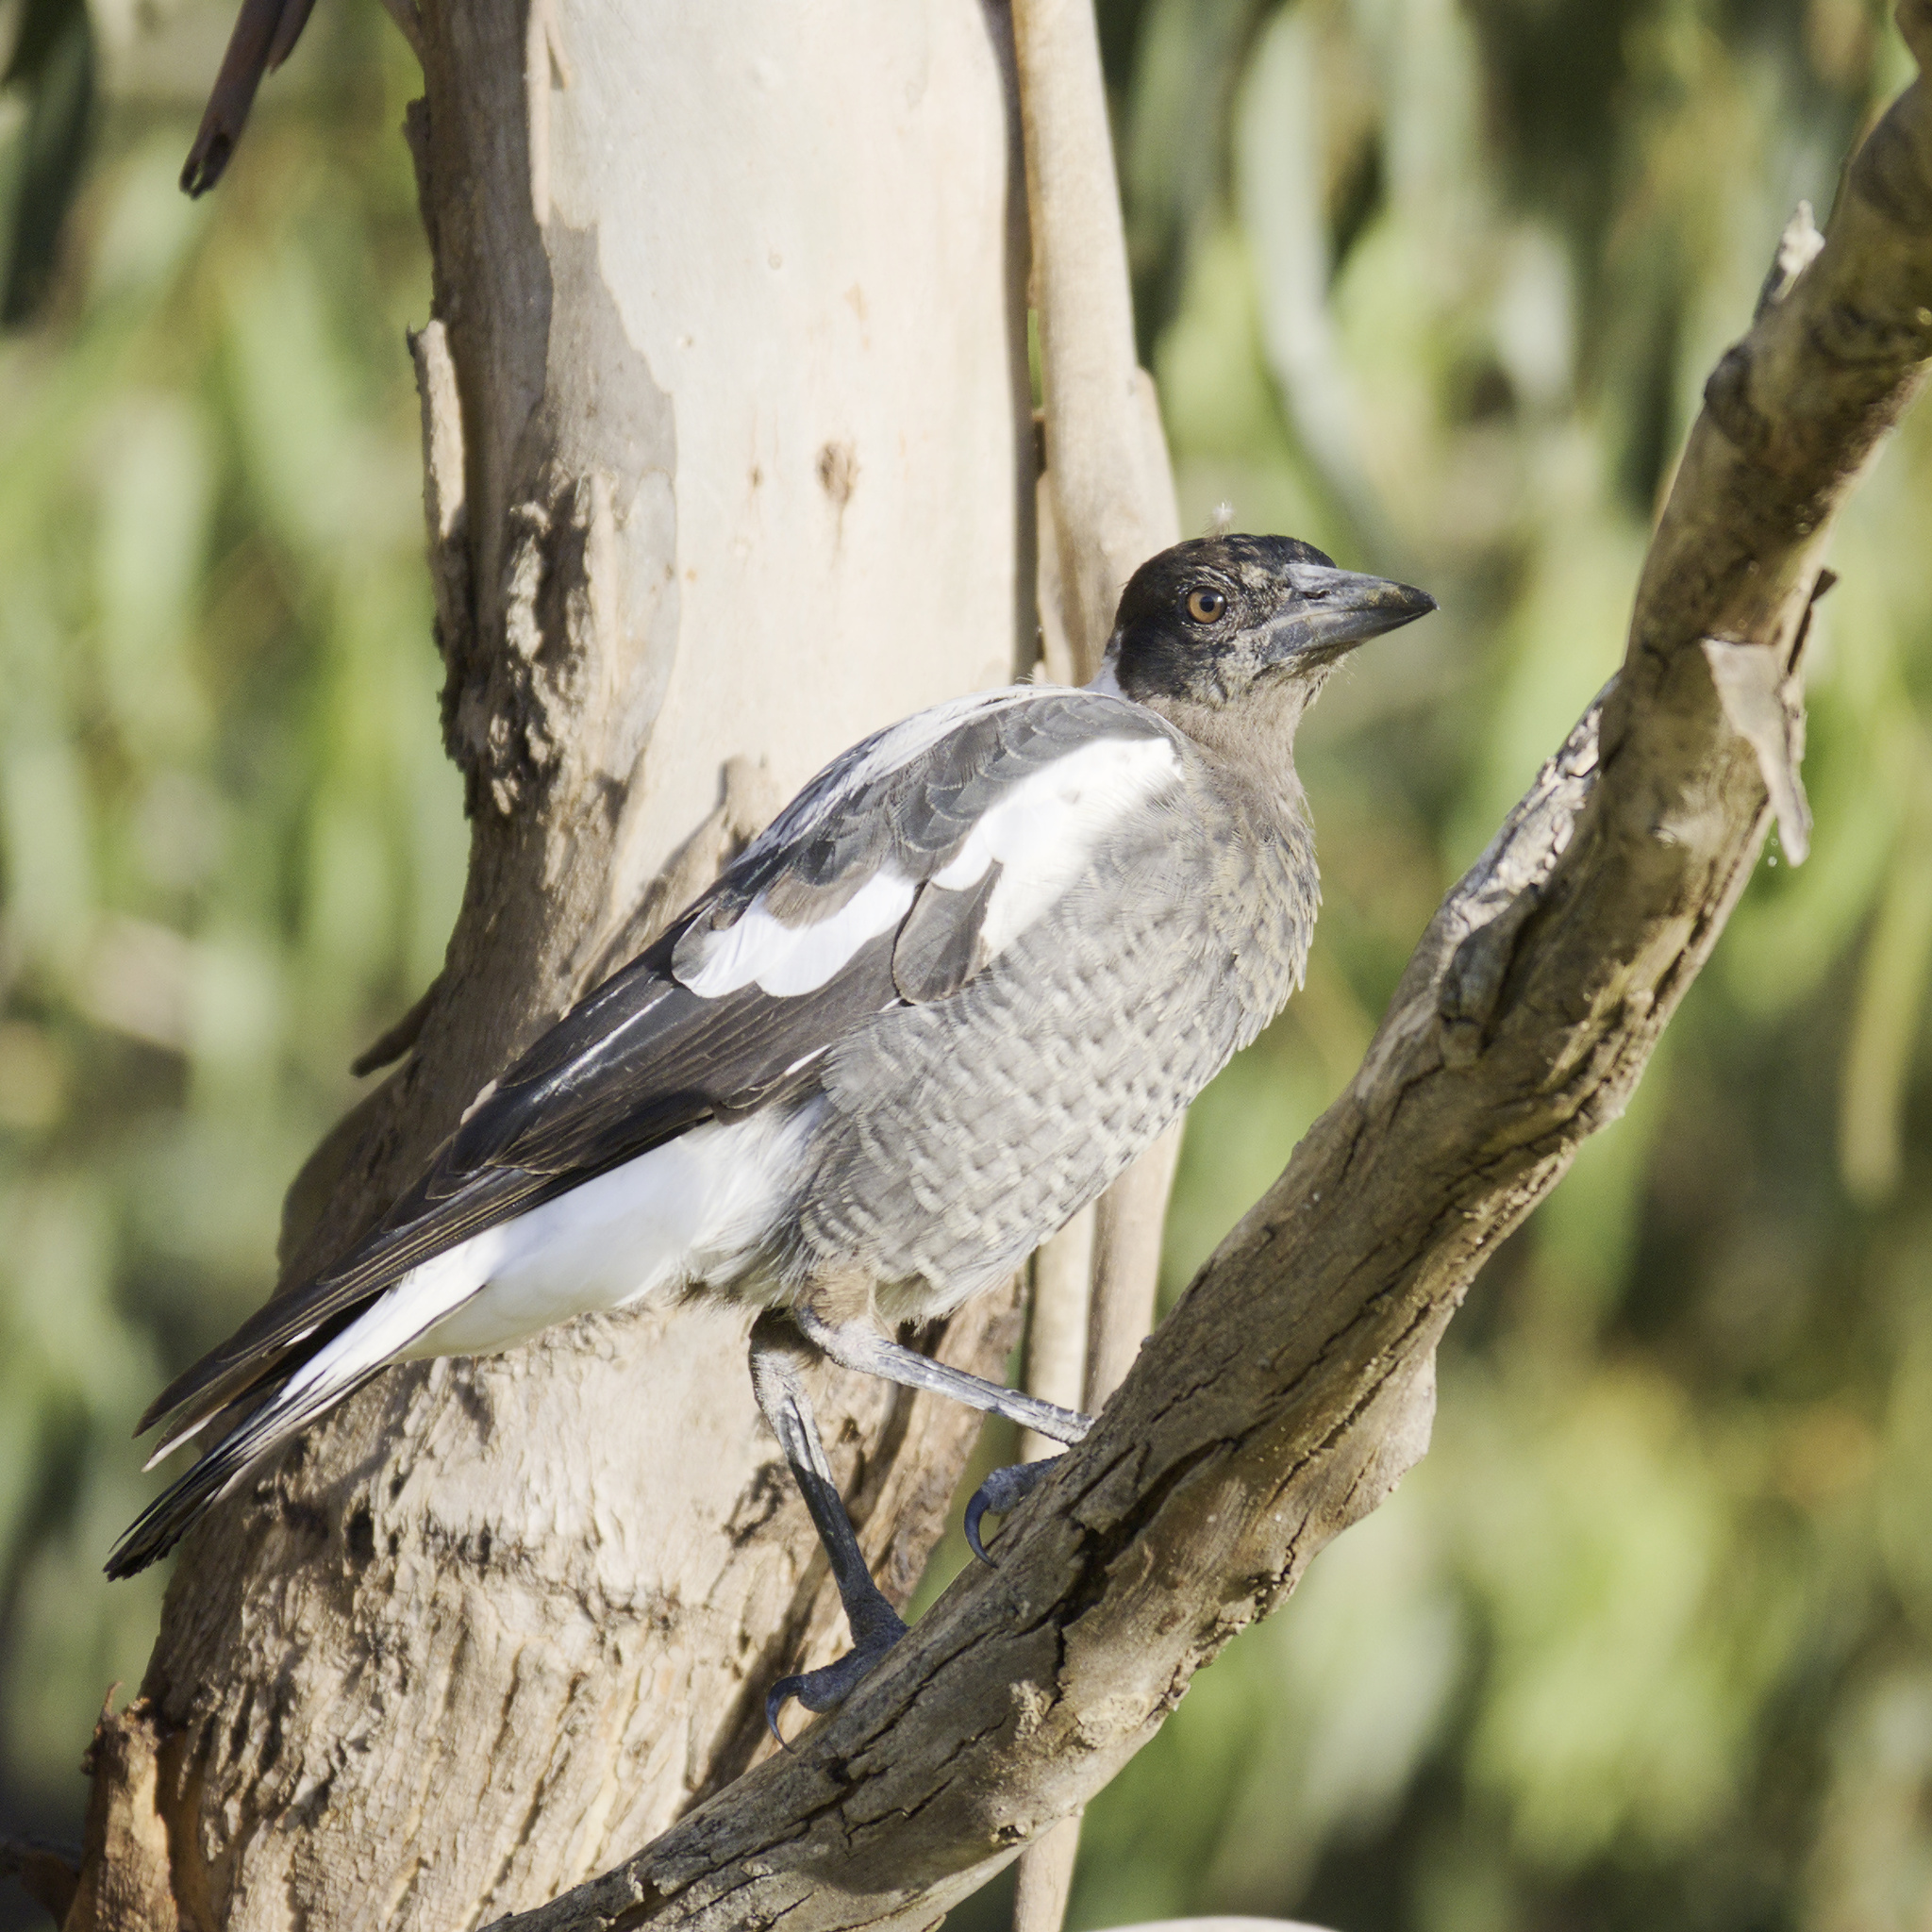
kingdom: Animalia
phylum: Chordata
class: Aves
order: Passeriformes
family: Cracticidae
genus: Gymnorhina
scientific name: Gymnorhina tibicen
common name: Australian magpie
